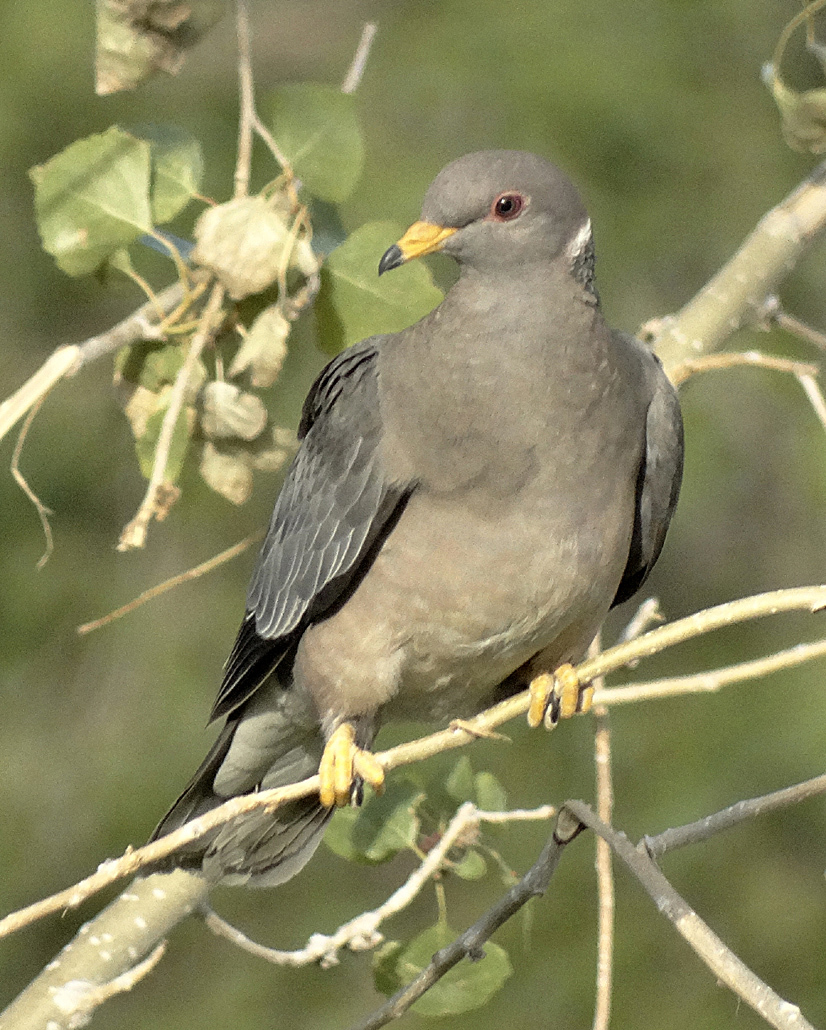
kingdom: Animalia
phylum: Chordata
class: Aves
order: Columbiformes
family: Columbidae
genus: Patagioenas
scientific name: Patagioenas fasciata
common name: Band-tailed pigeon
